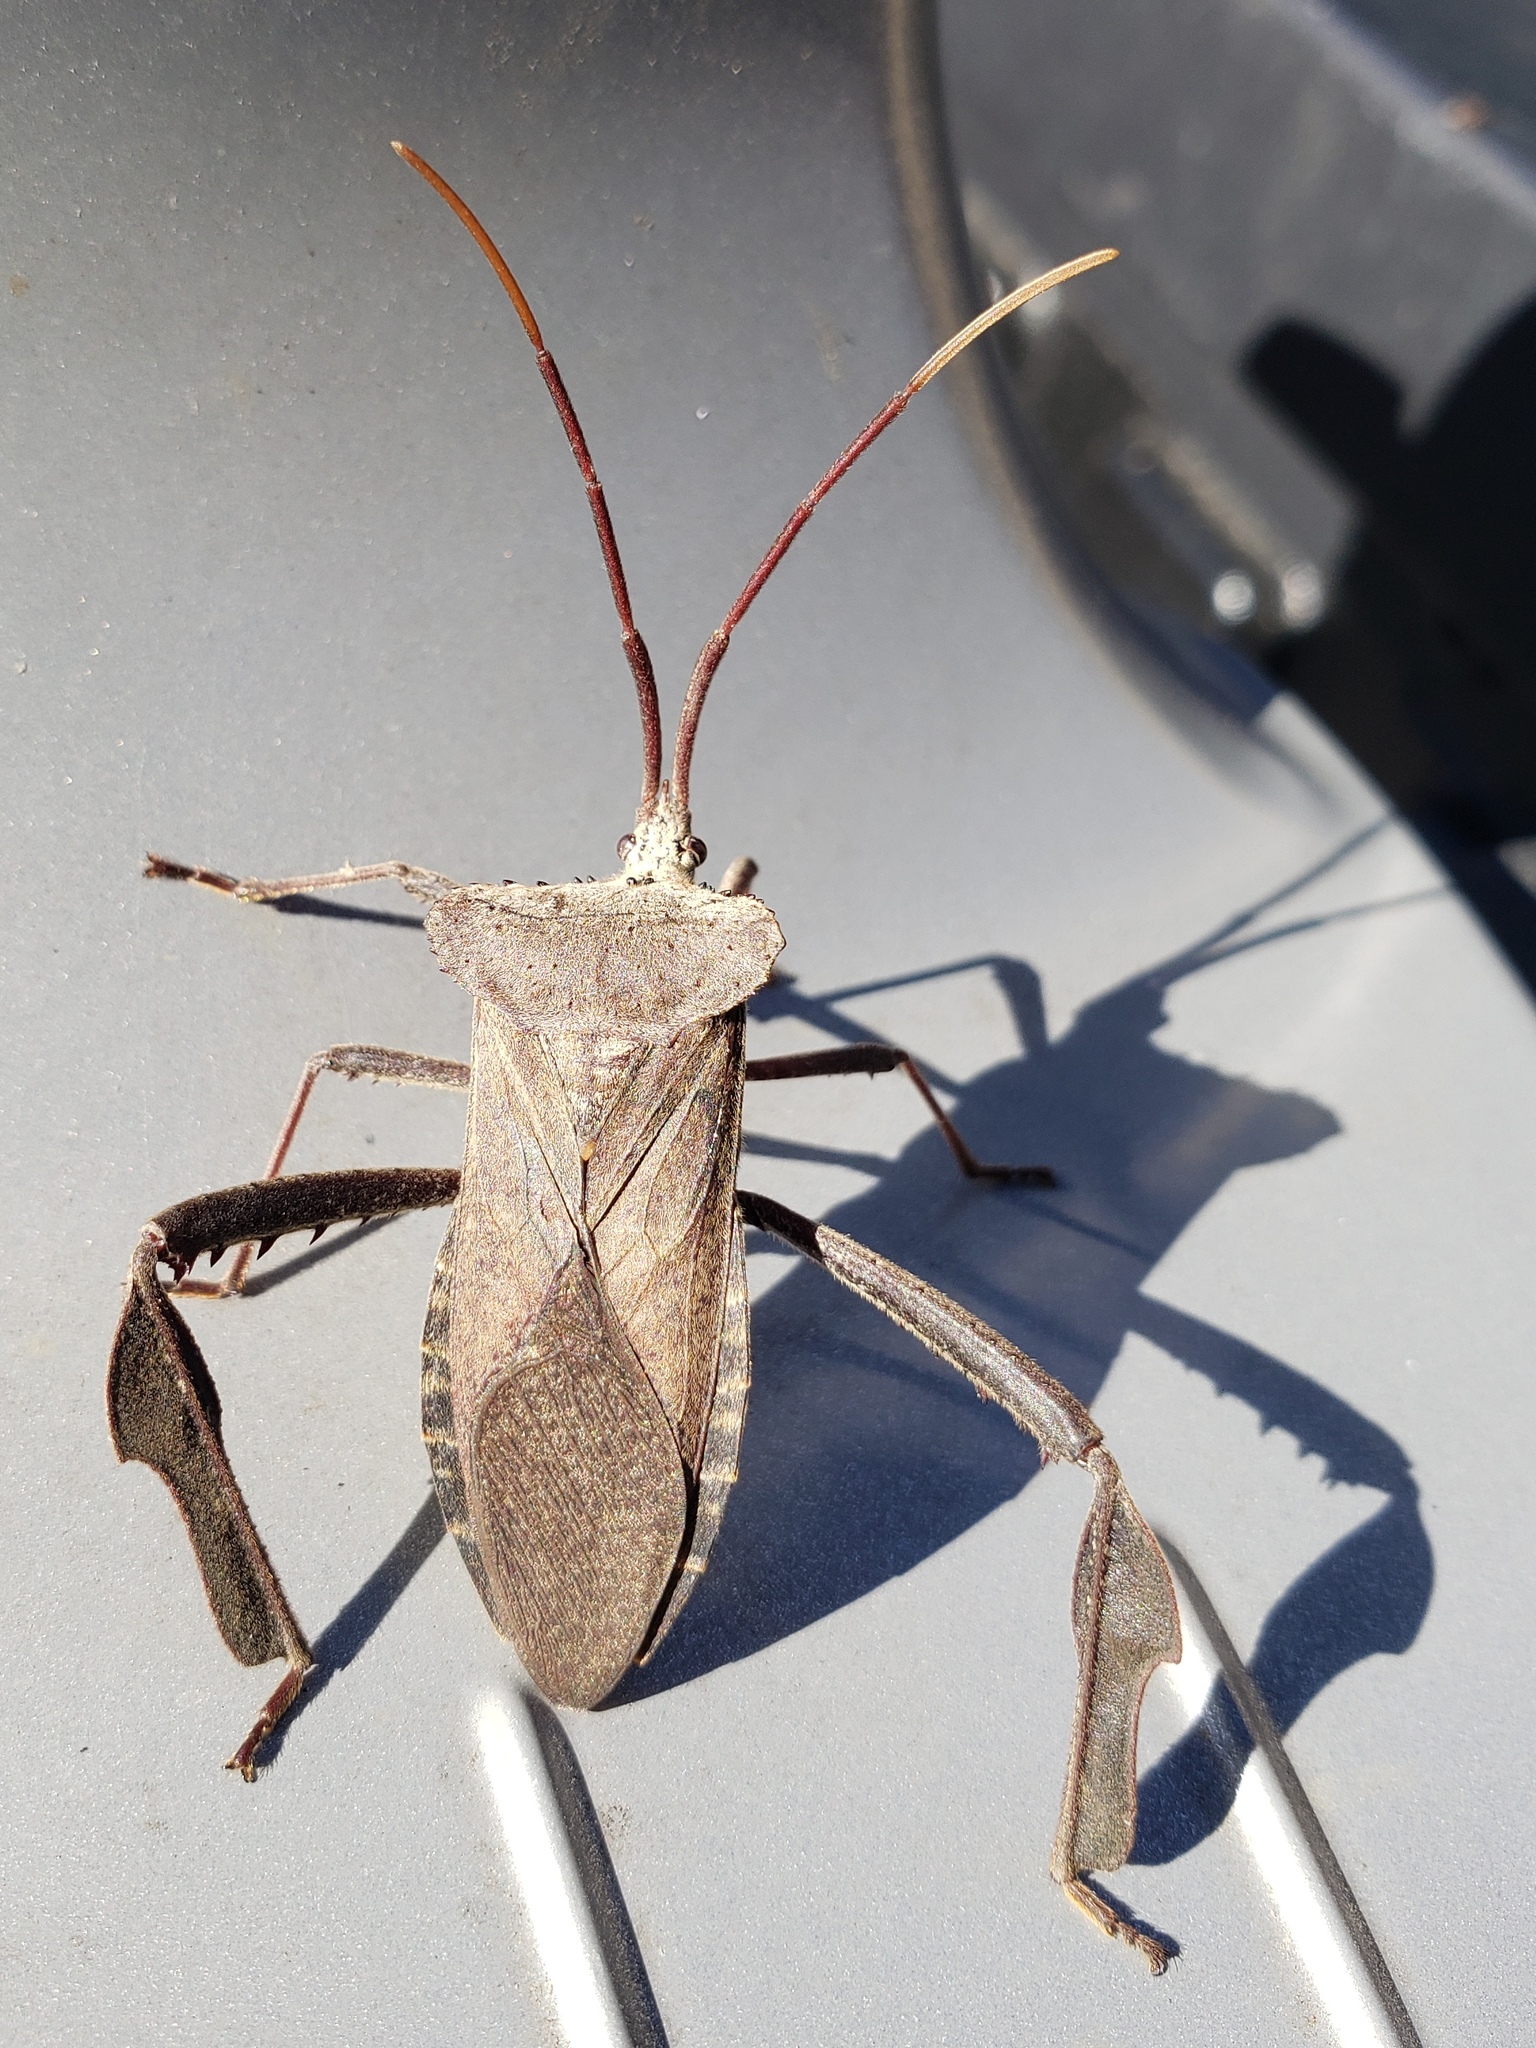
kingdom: Animalia
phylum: Arthropoda
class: Insecta
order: Hemiptera
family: Coreidae
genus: Acanthocephala
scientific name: Acanthocephala declivis
